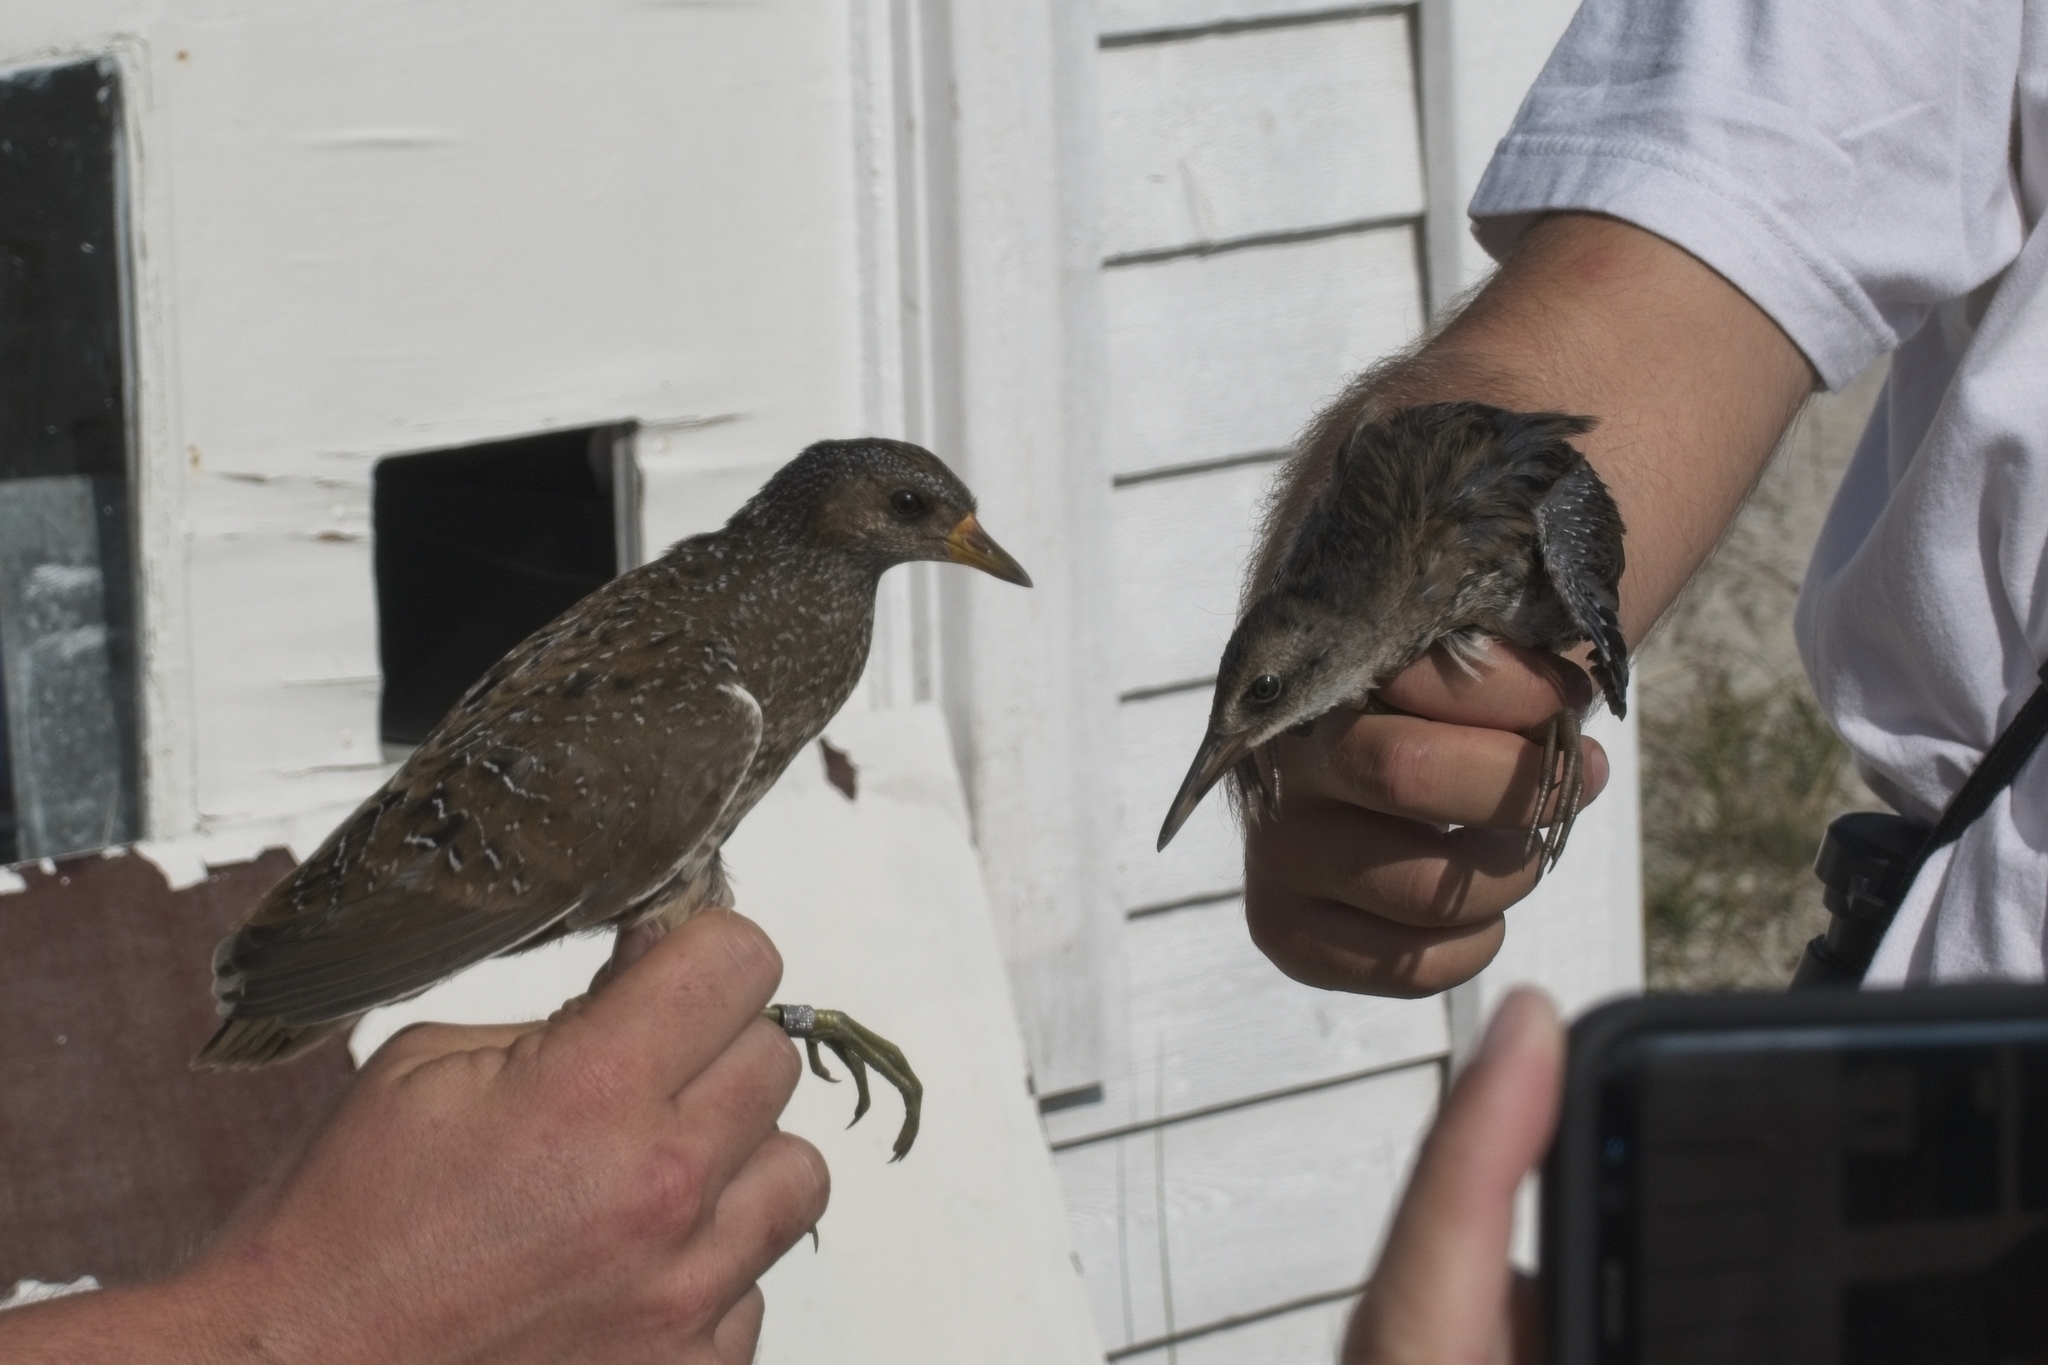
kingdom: Animalia
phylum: Chordata
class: Aves
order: Gruiformes
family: Rallidae
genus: Rallus
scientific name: Rallus aquaticus
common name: Water rail
